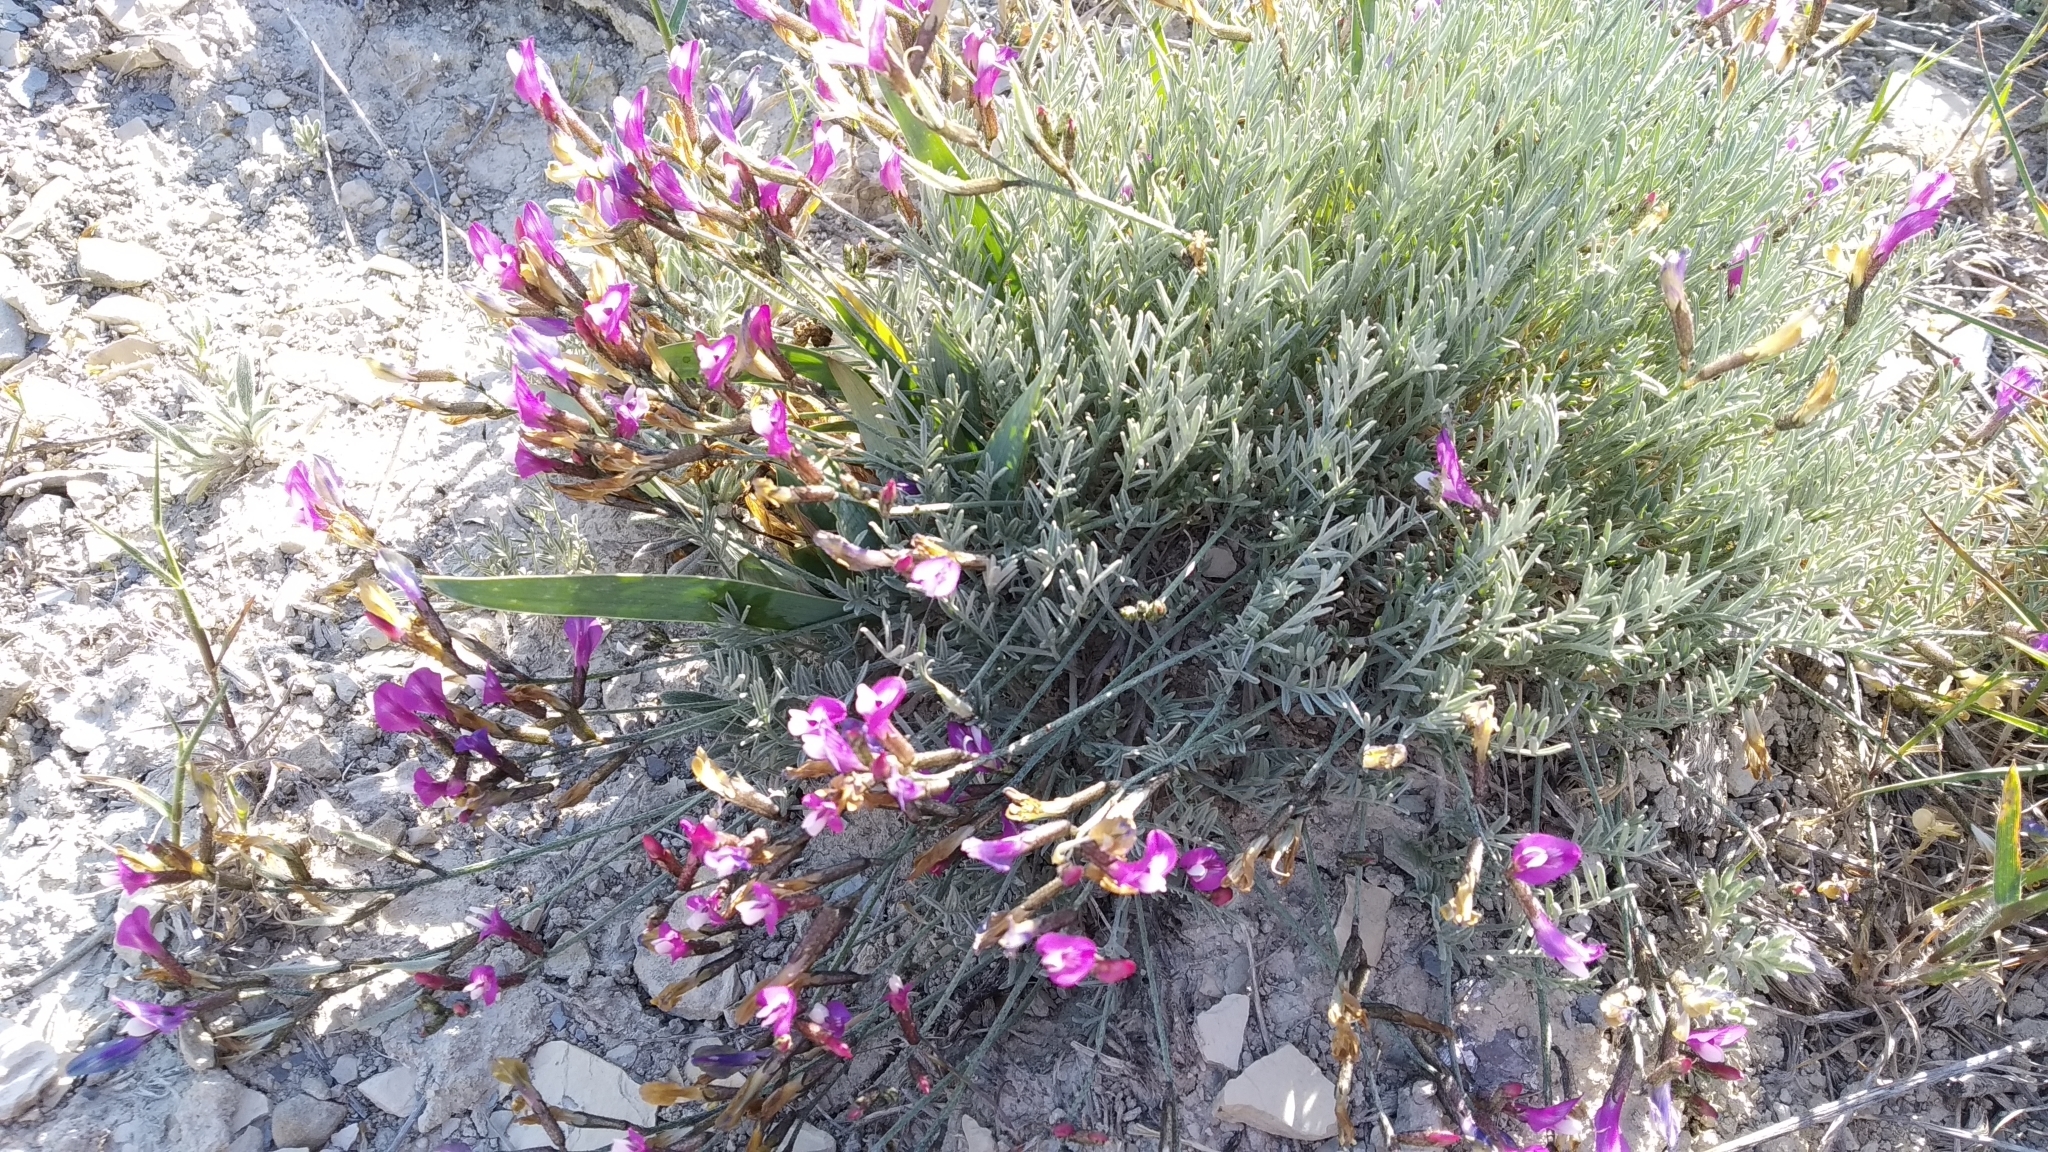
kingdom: Plantae
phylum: Tracheophyta
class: Magnoliopsida
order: Fabales
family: Fabaceae
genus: Astragalus
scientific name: Astragalus subuliformis
